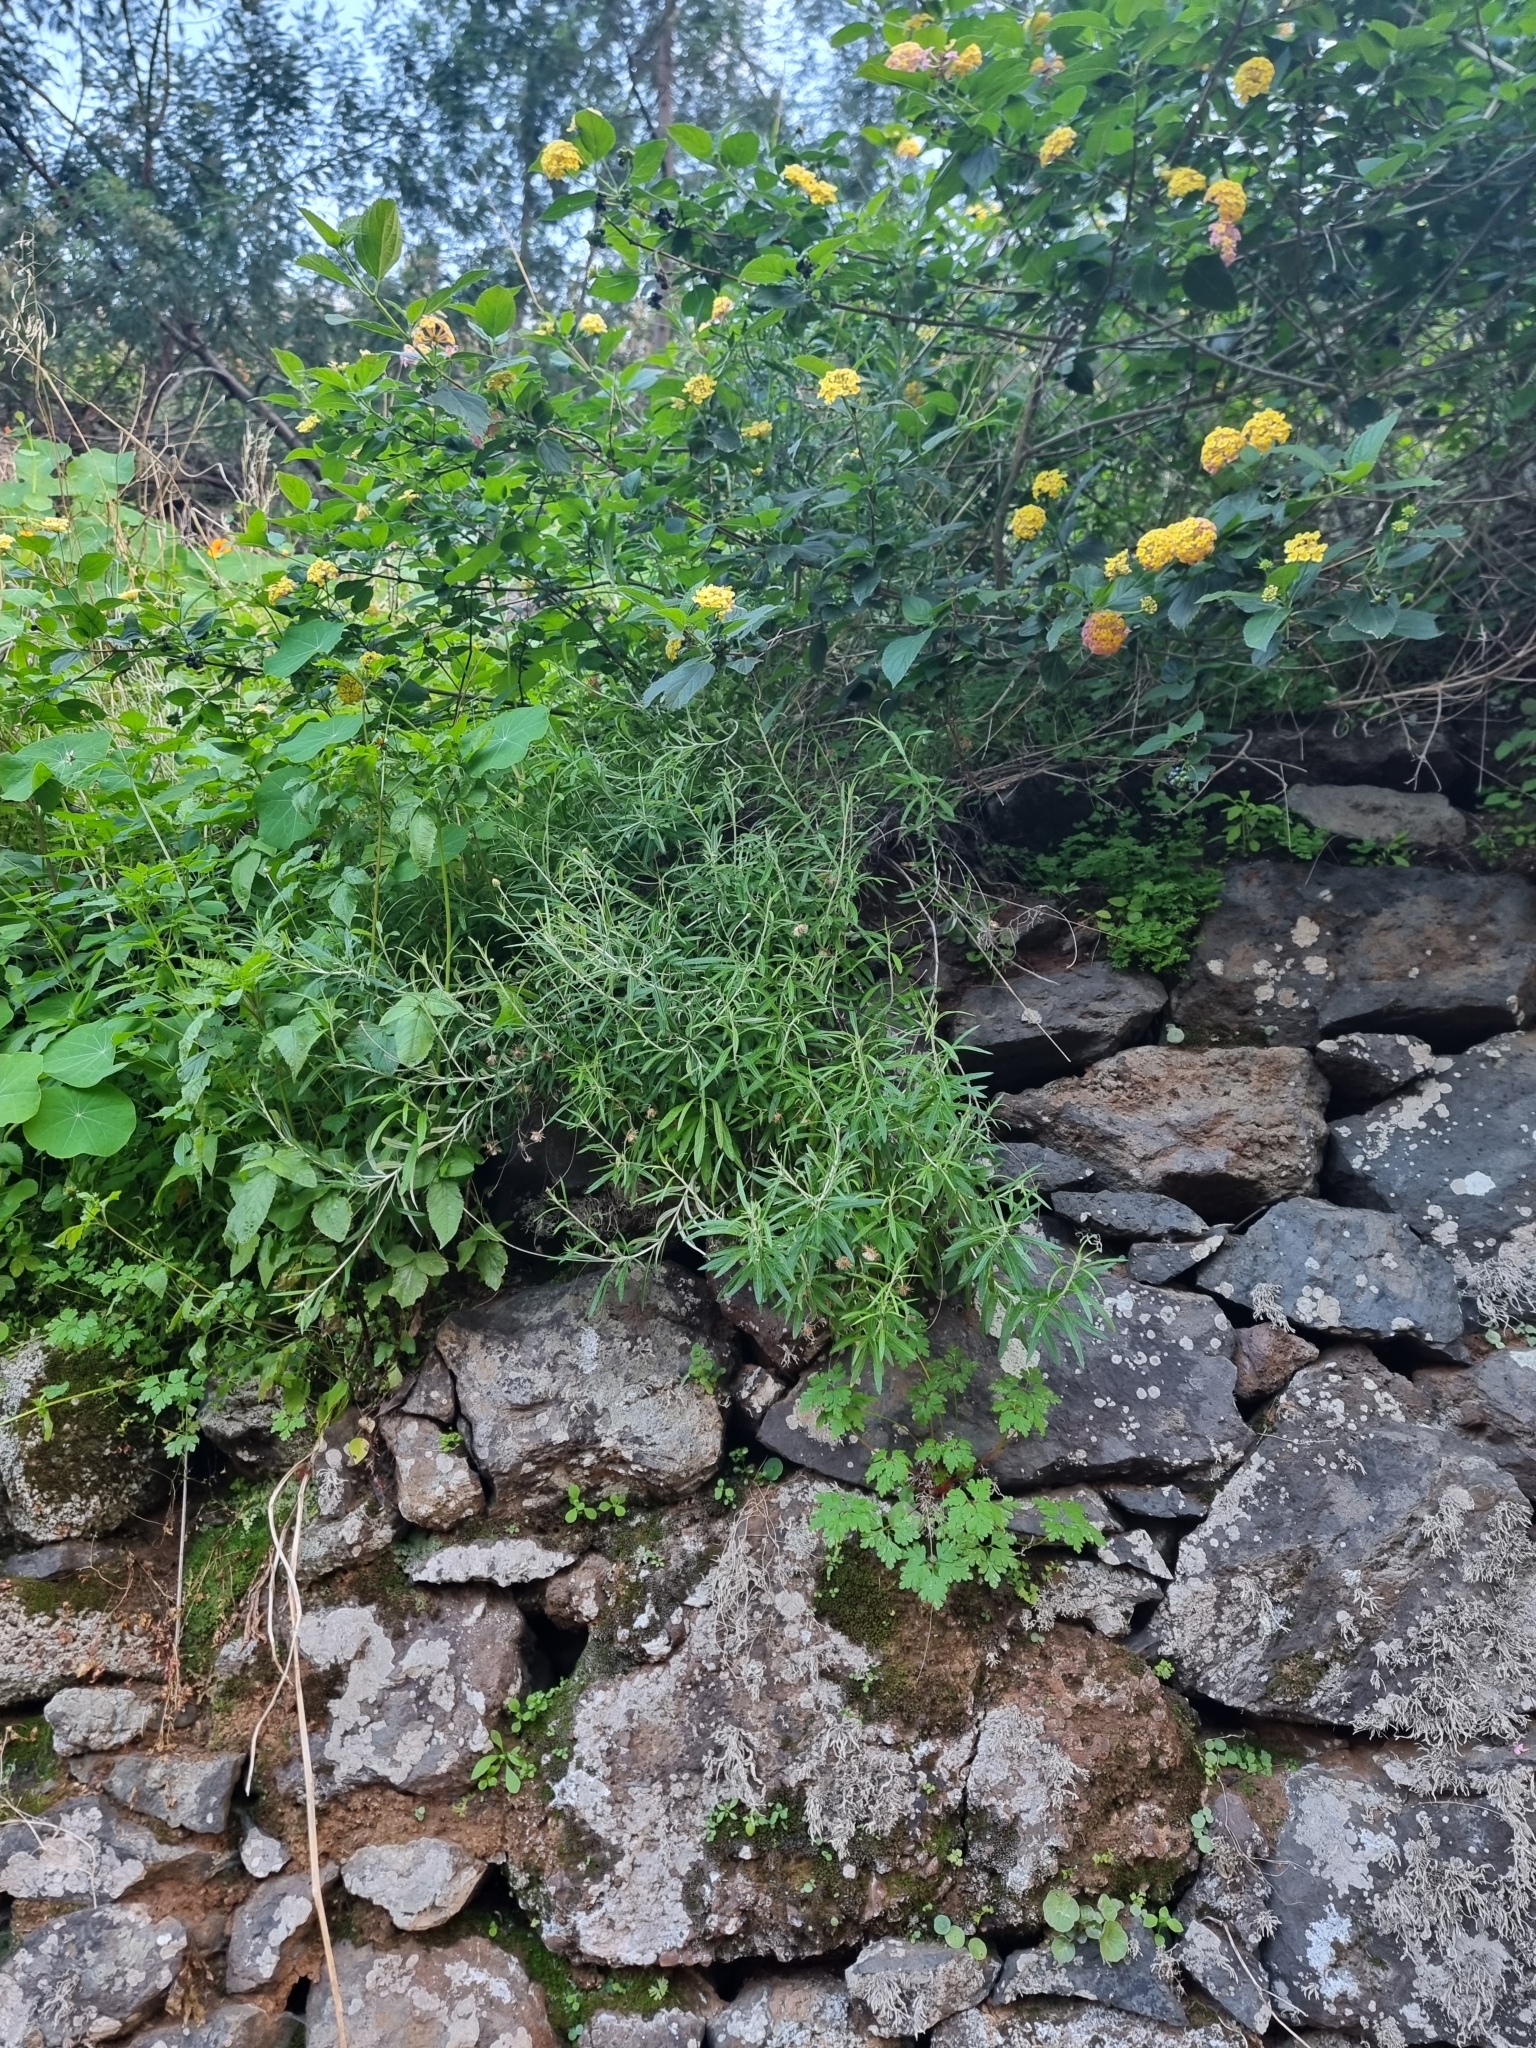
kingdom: Plantae
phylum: Tracheophyta
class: Magnoliopsida
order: Asterales
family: Asteraceae
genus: Phagnalon
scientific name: Phagnalon saxatile
